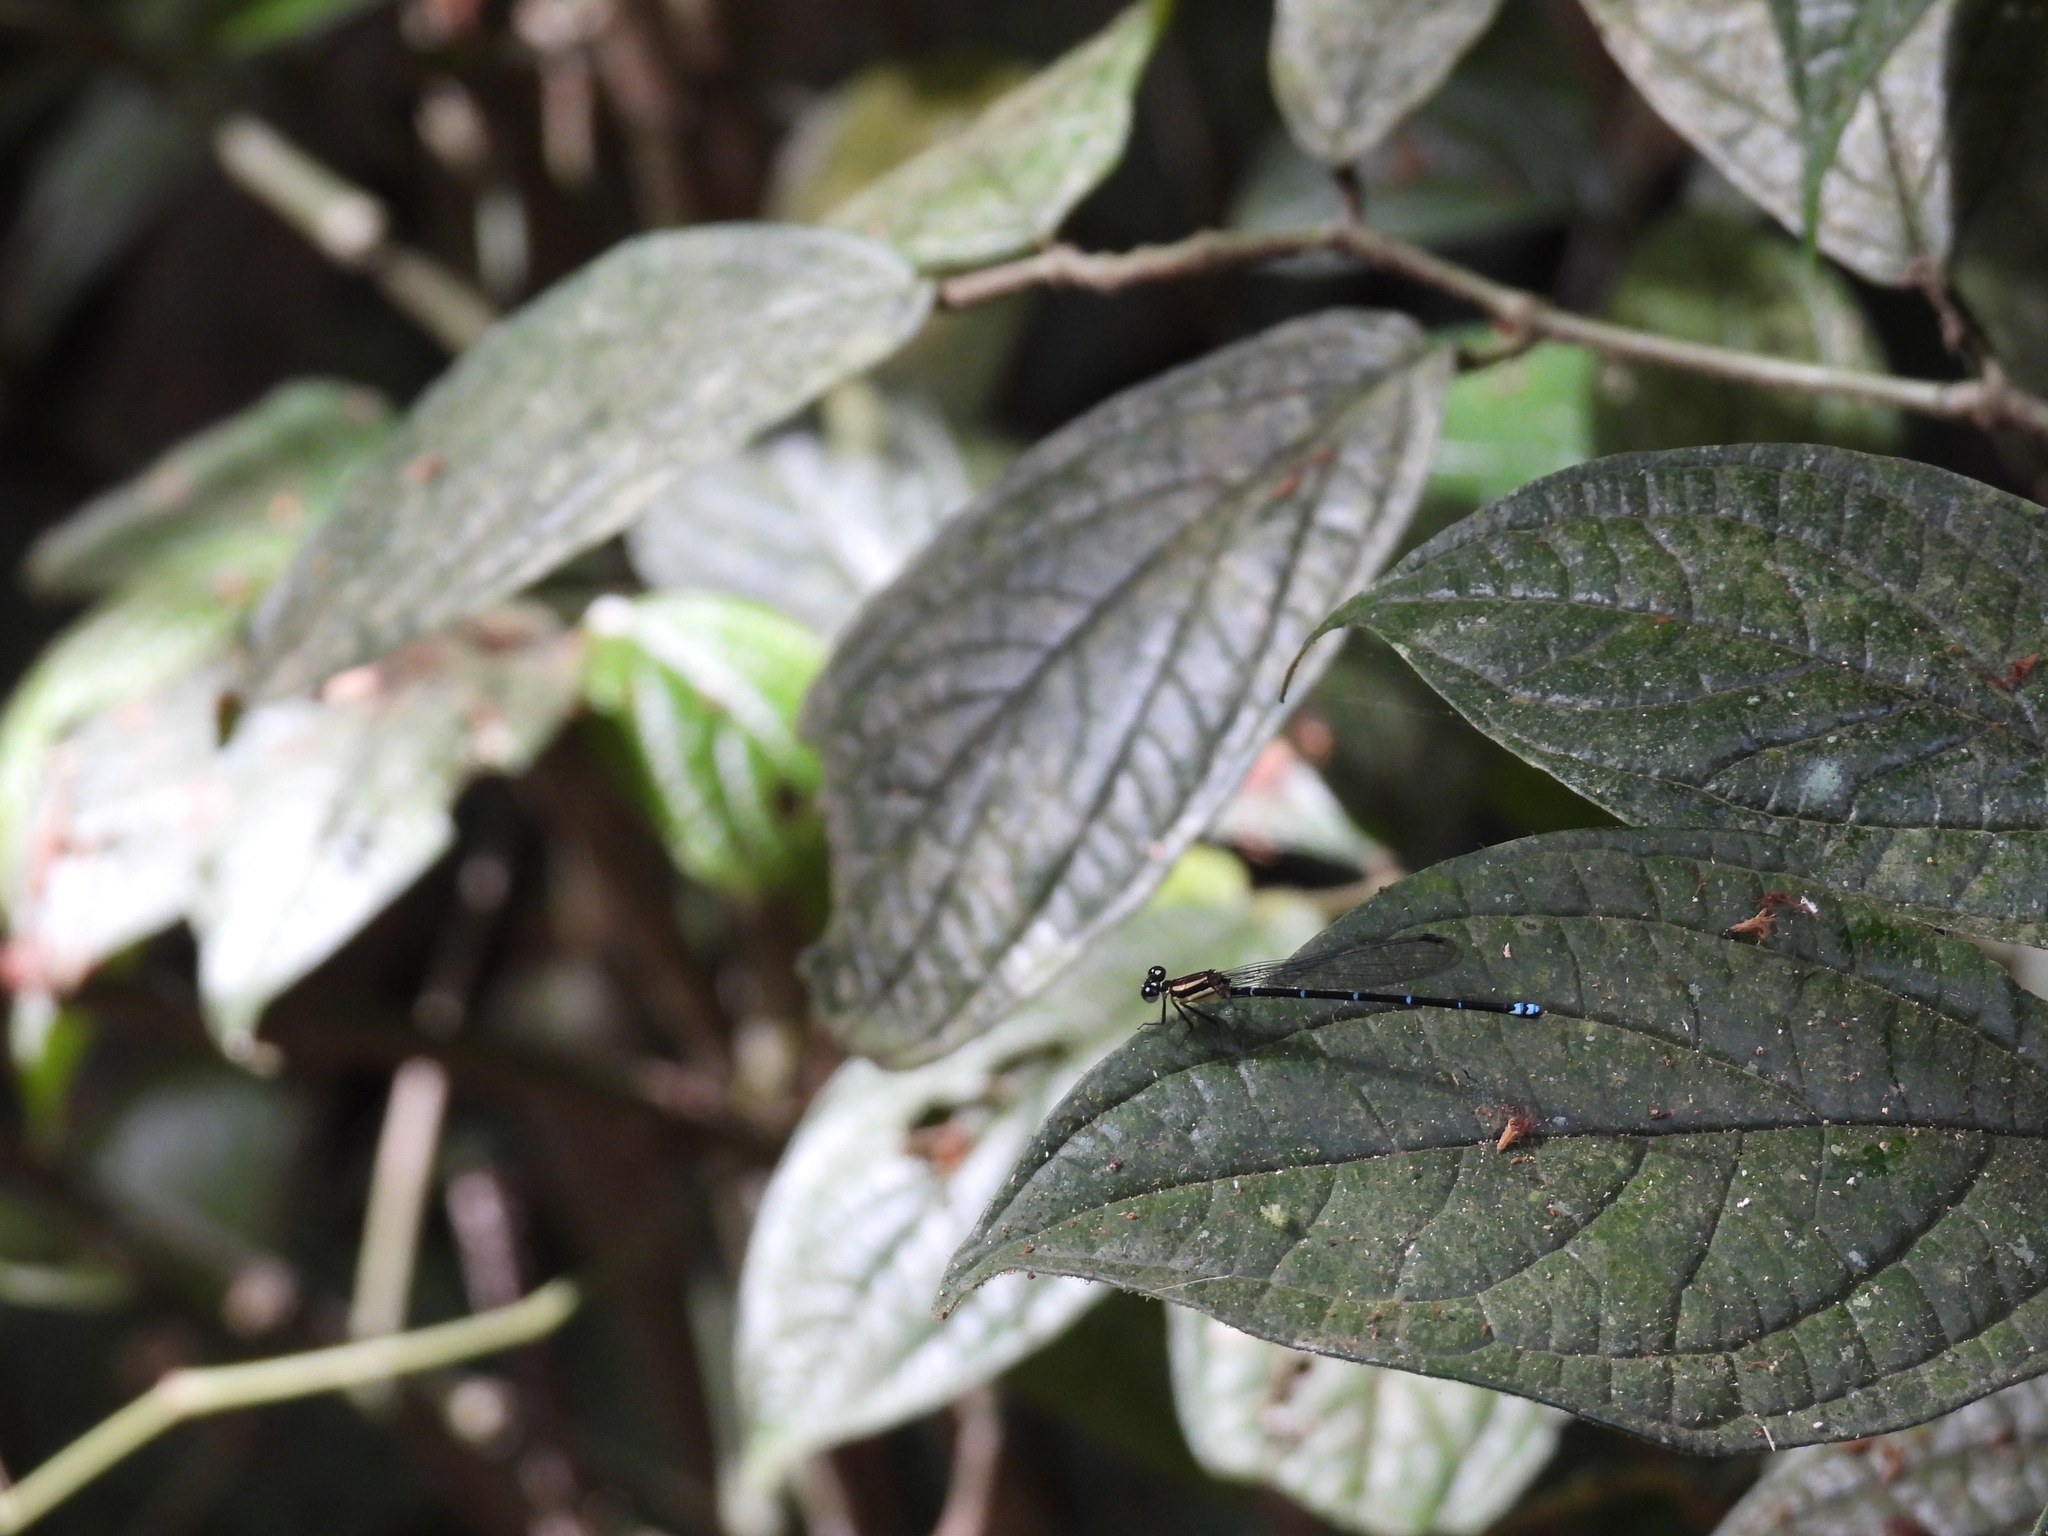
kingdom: Animalia
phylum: Arthropoda
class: Insecta
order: Odonata
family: Coenagrionidae
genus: Argia
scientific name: Argia adamsi
